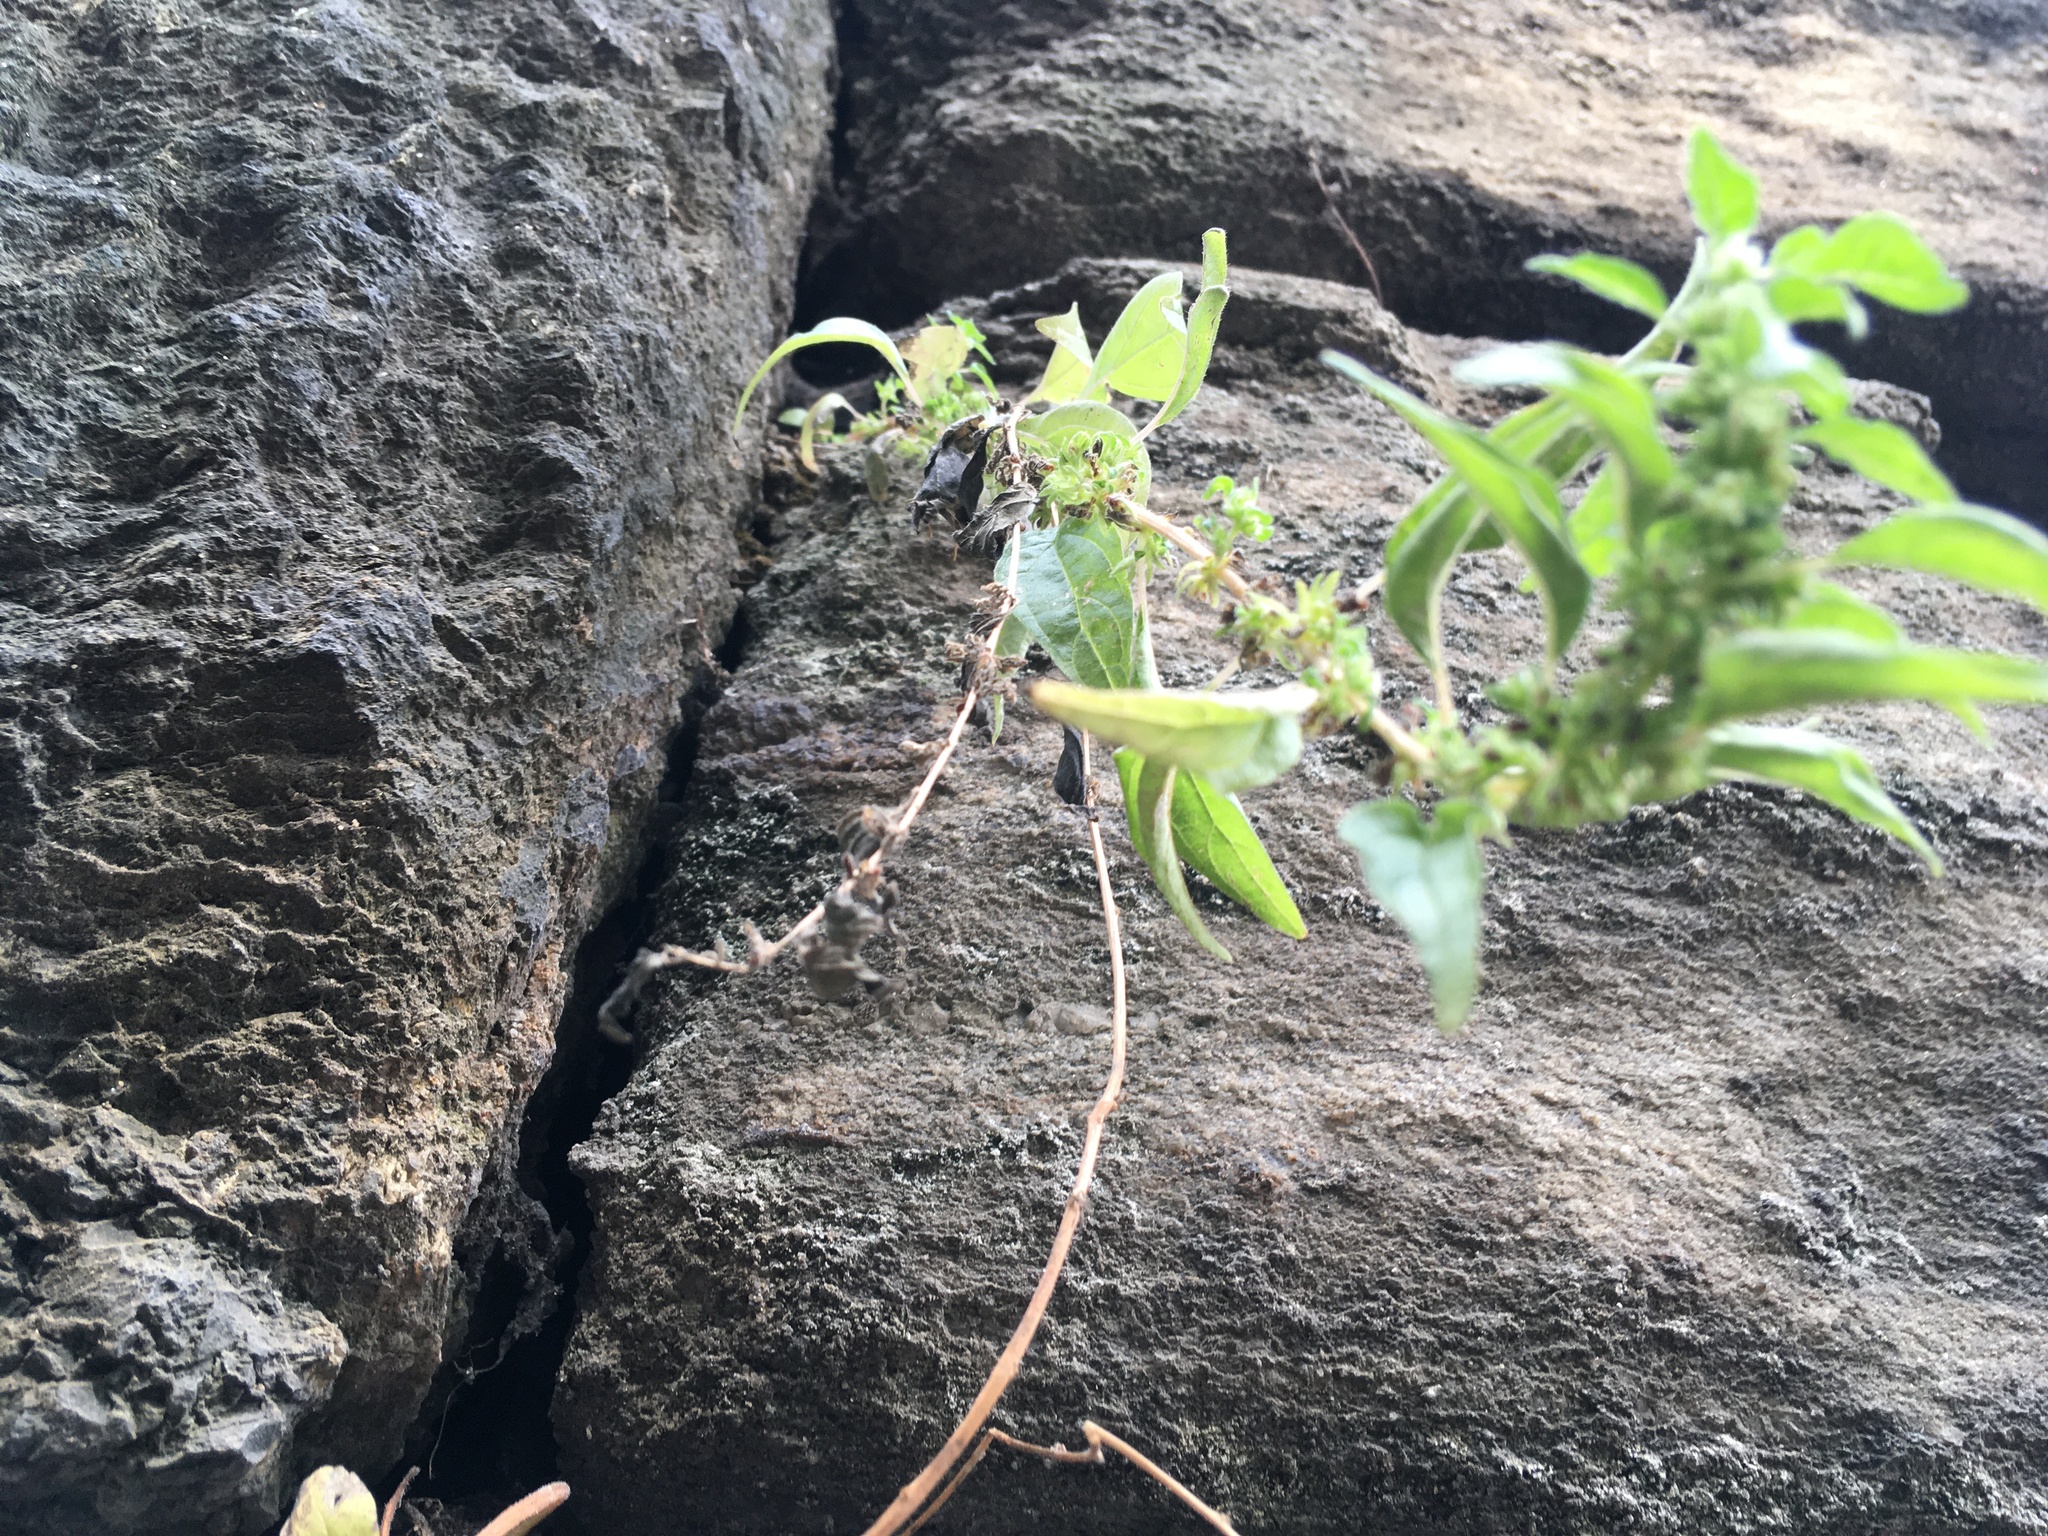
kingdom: Plantae
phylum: Tracheophyta
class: Magnoliopsida
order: Rosales
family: Urticaceae
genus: Parietaria
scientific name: Parietaria pensylvanica
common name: Pennsylvania pellitory
